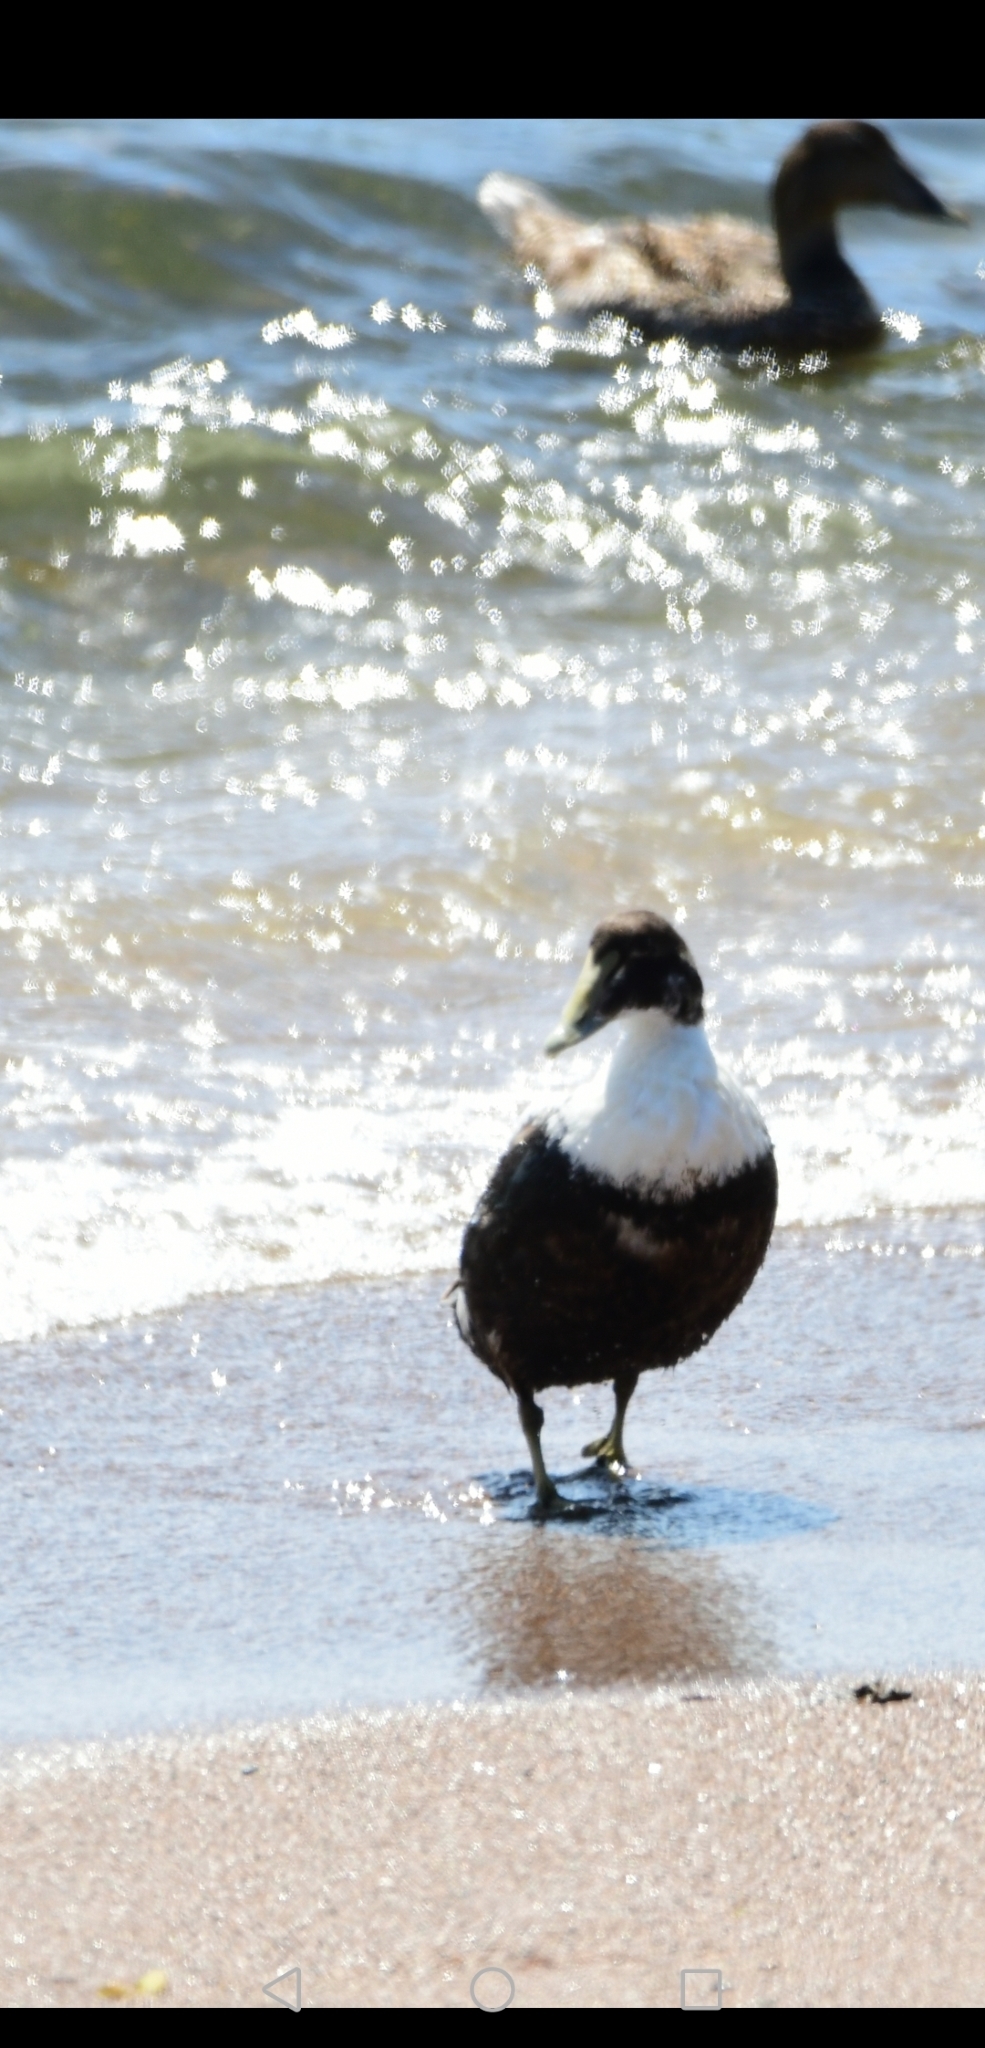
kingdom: Animalia
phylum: Chordata
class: Aves
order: Anseriformes
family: Anatidae
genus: Somateria
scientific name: Somateria mollissima
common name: Common eider
